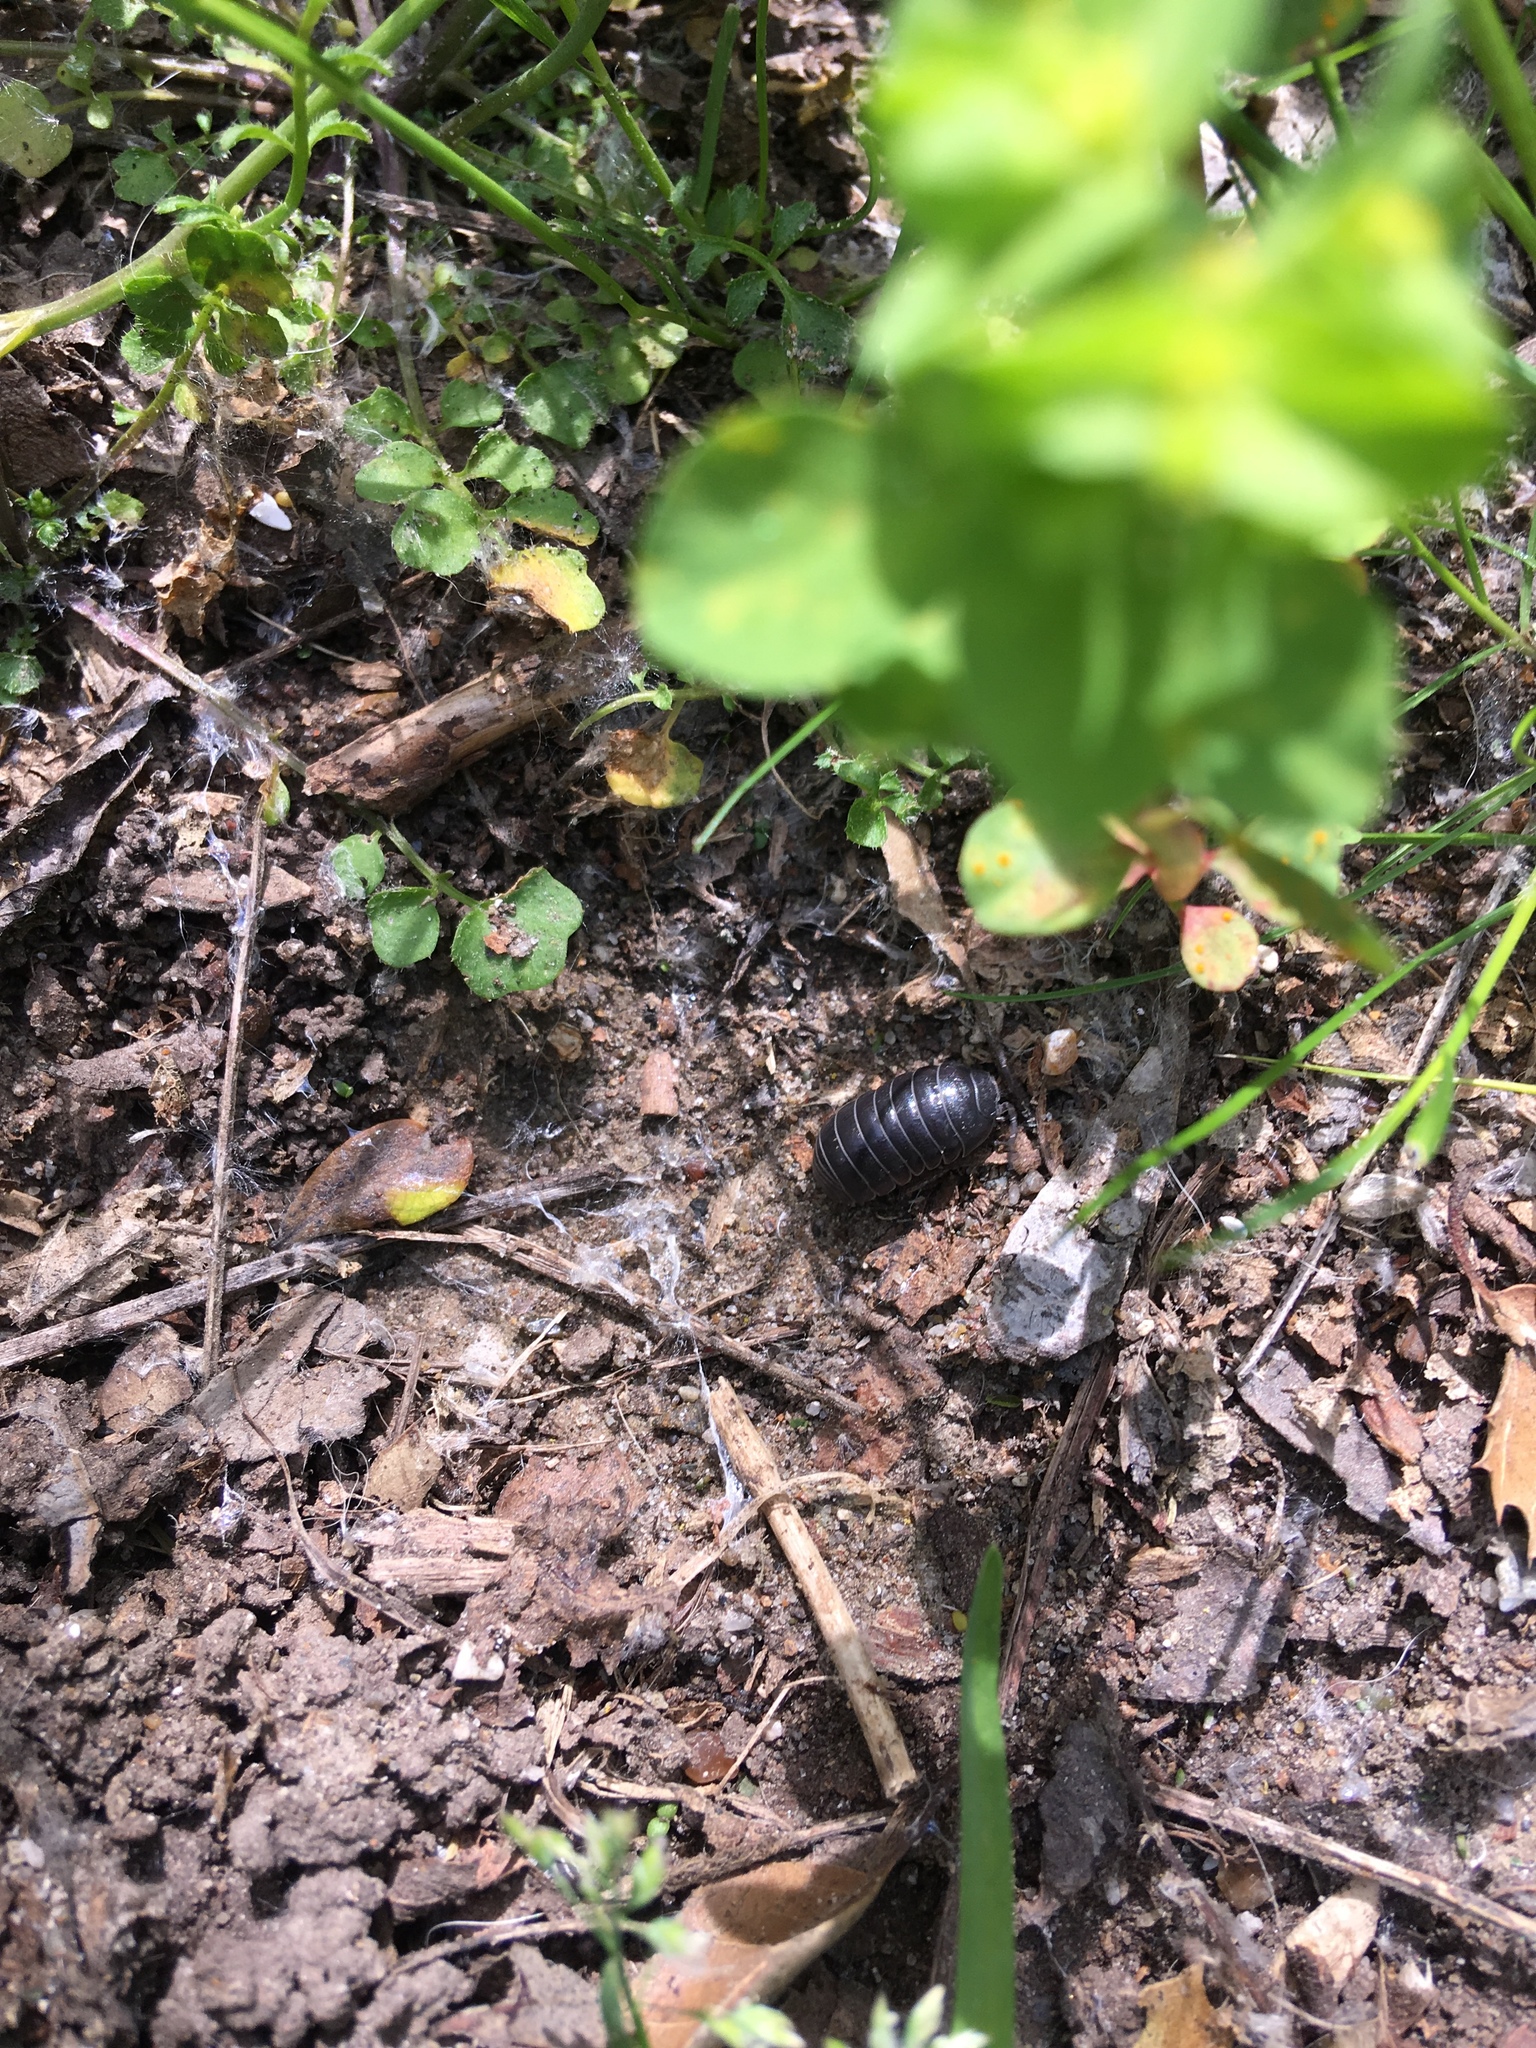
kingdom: Animalia
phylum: Arthropoda
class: Malacostraca
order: Isopoda
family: Armadillidiidae
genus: Armadillidium
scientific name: Armadillidium vulgare
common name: Common pill woodlouse
